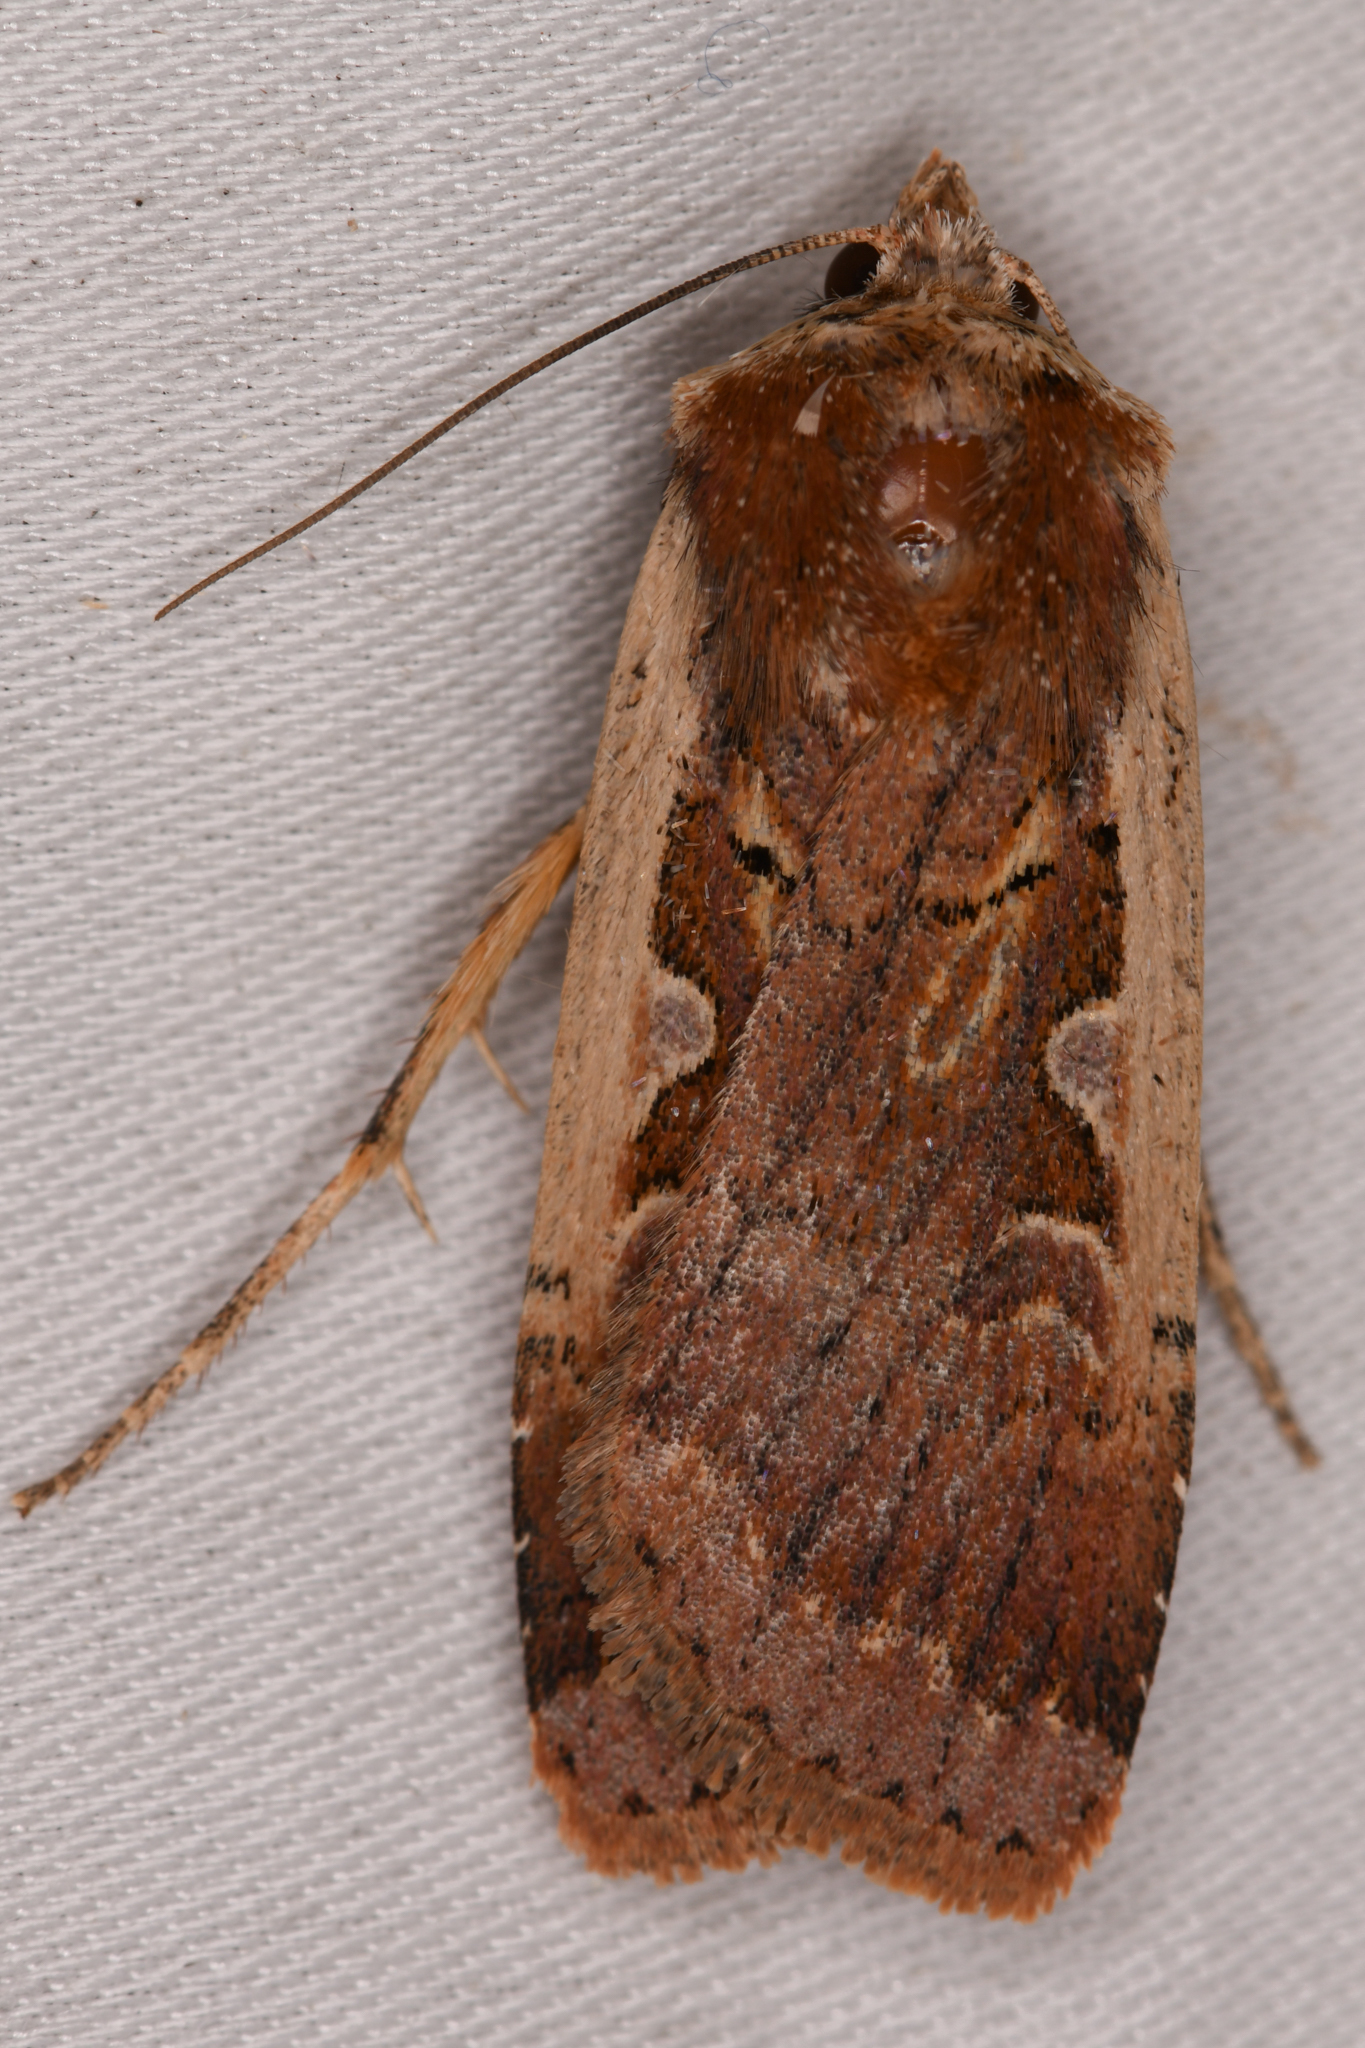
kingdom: Animalia
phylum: Arthropoda
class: Insecta
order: Lepidoptera
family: Noctuidae
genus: Parabagrotis
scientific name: Parabagrotis sulinaris
